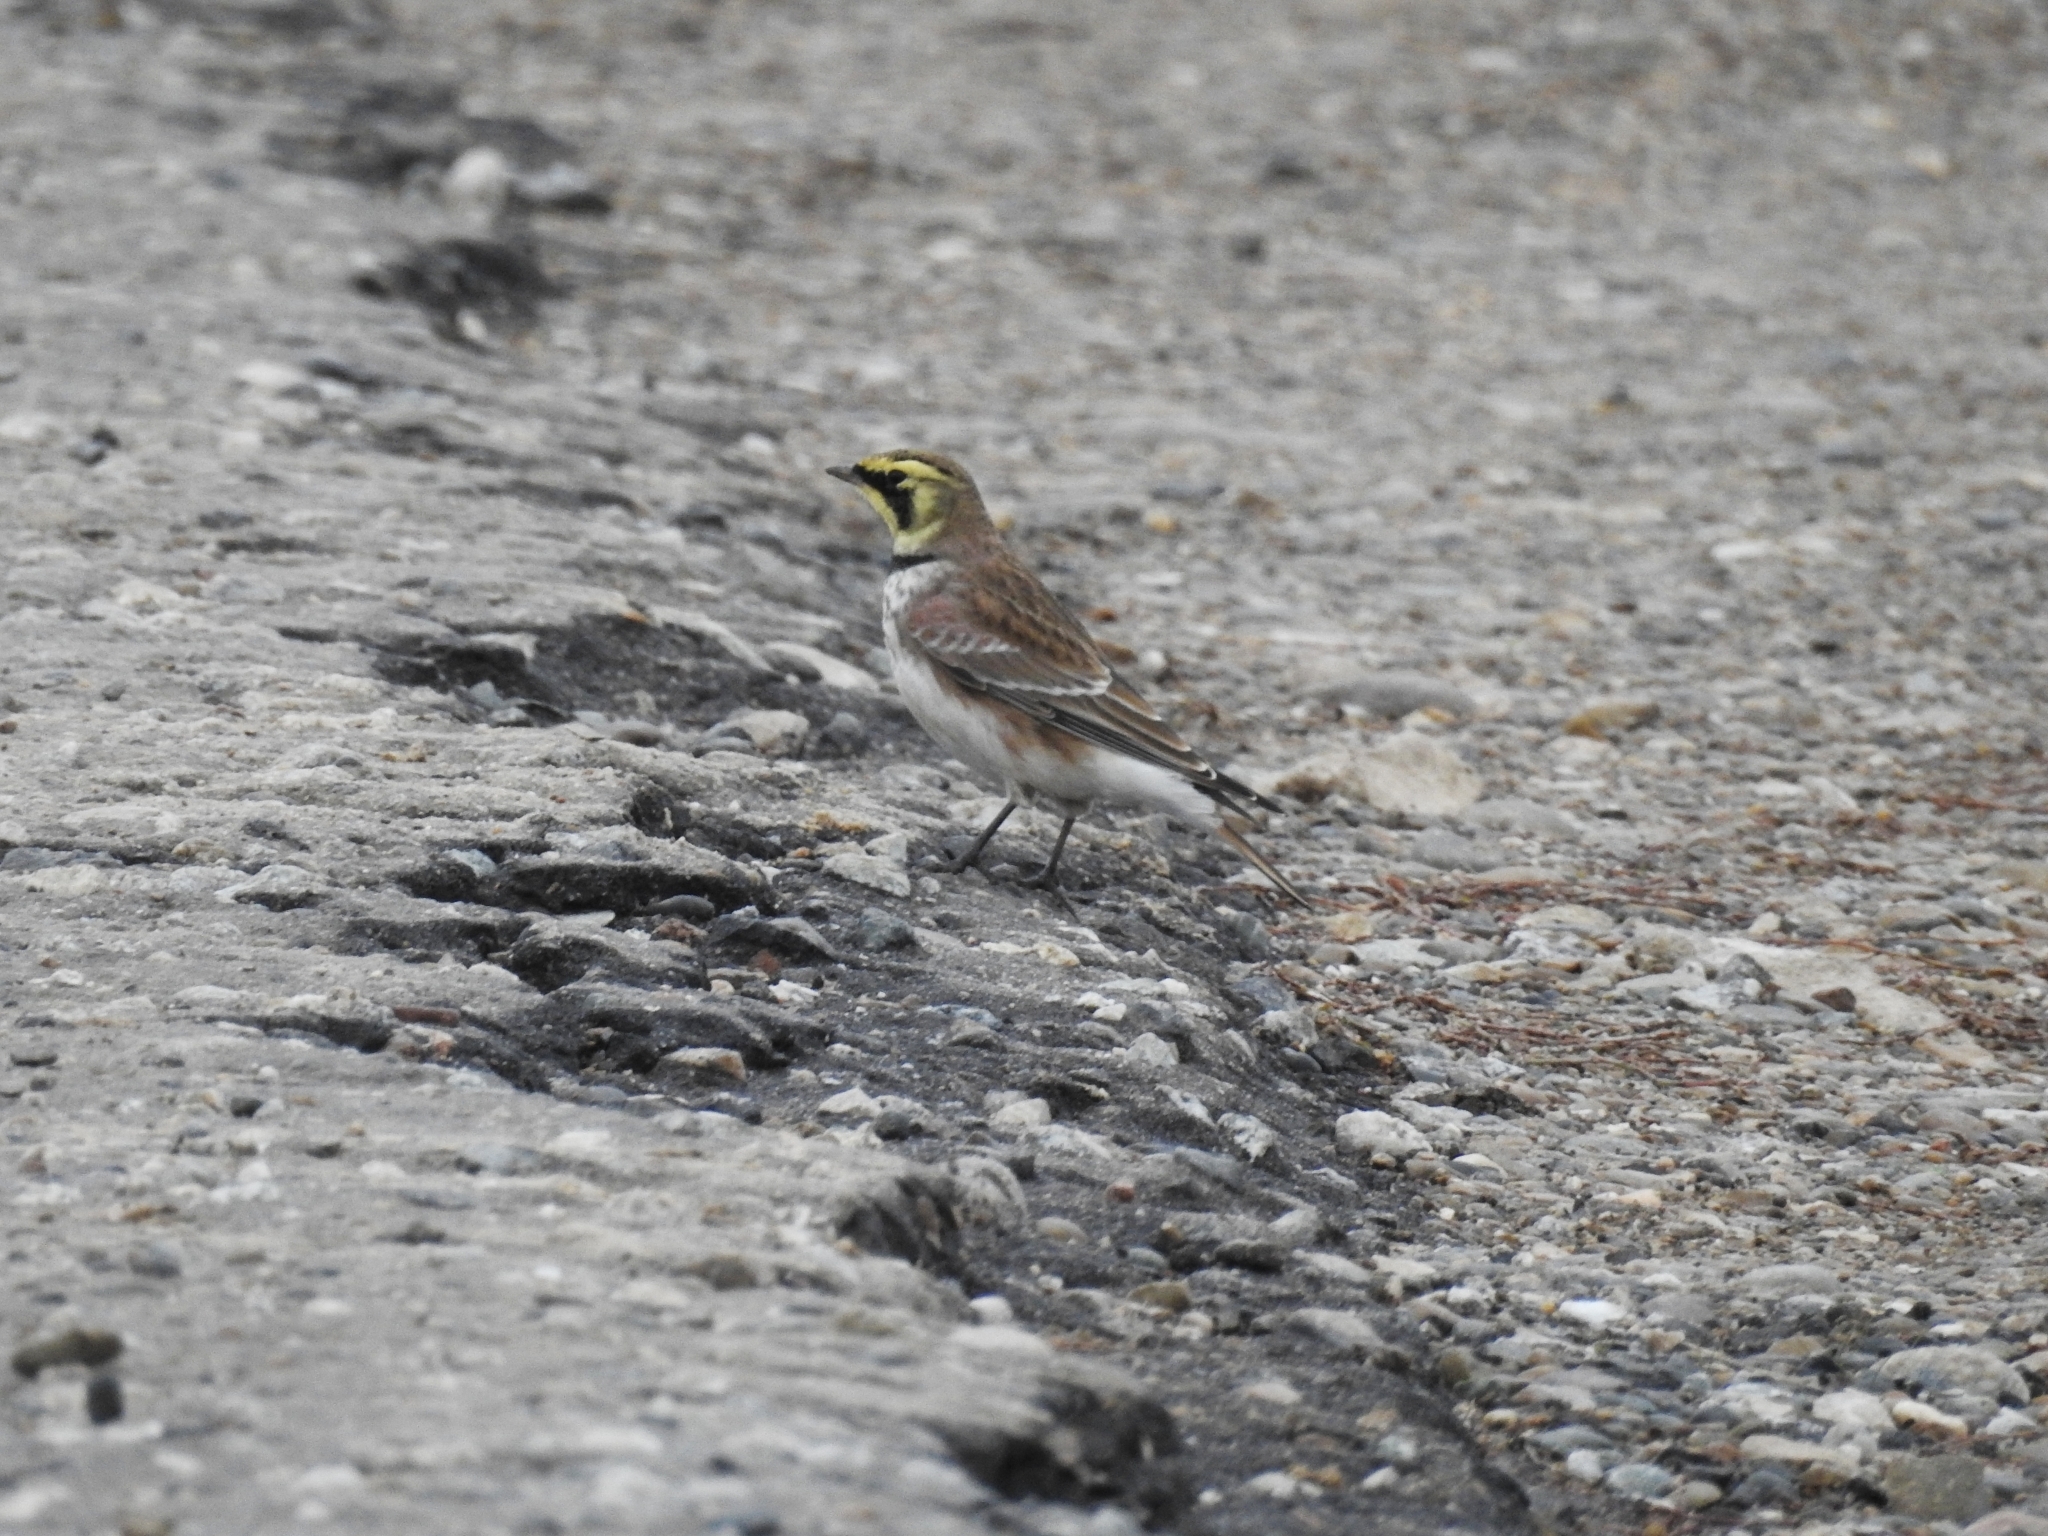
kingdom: Animalia
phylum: Chordata
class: Aves
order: Passeriformes
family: Alaudidae
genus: Eremophila
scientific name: Eremophila alpestris
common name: Horned lark
